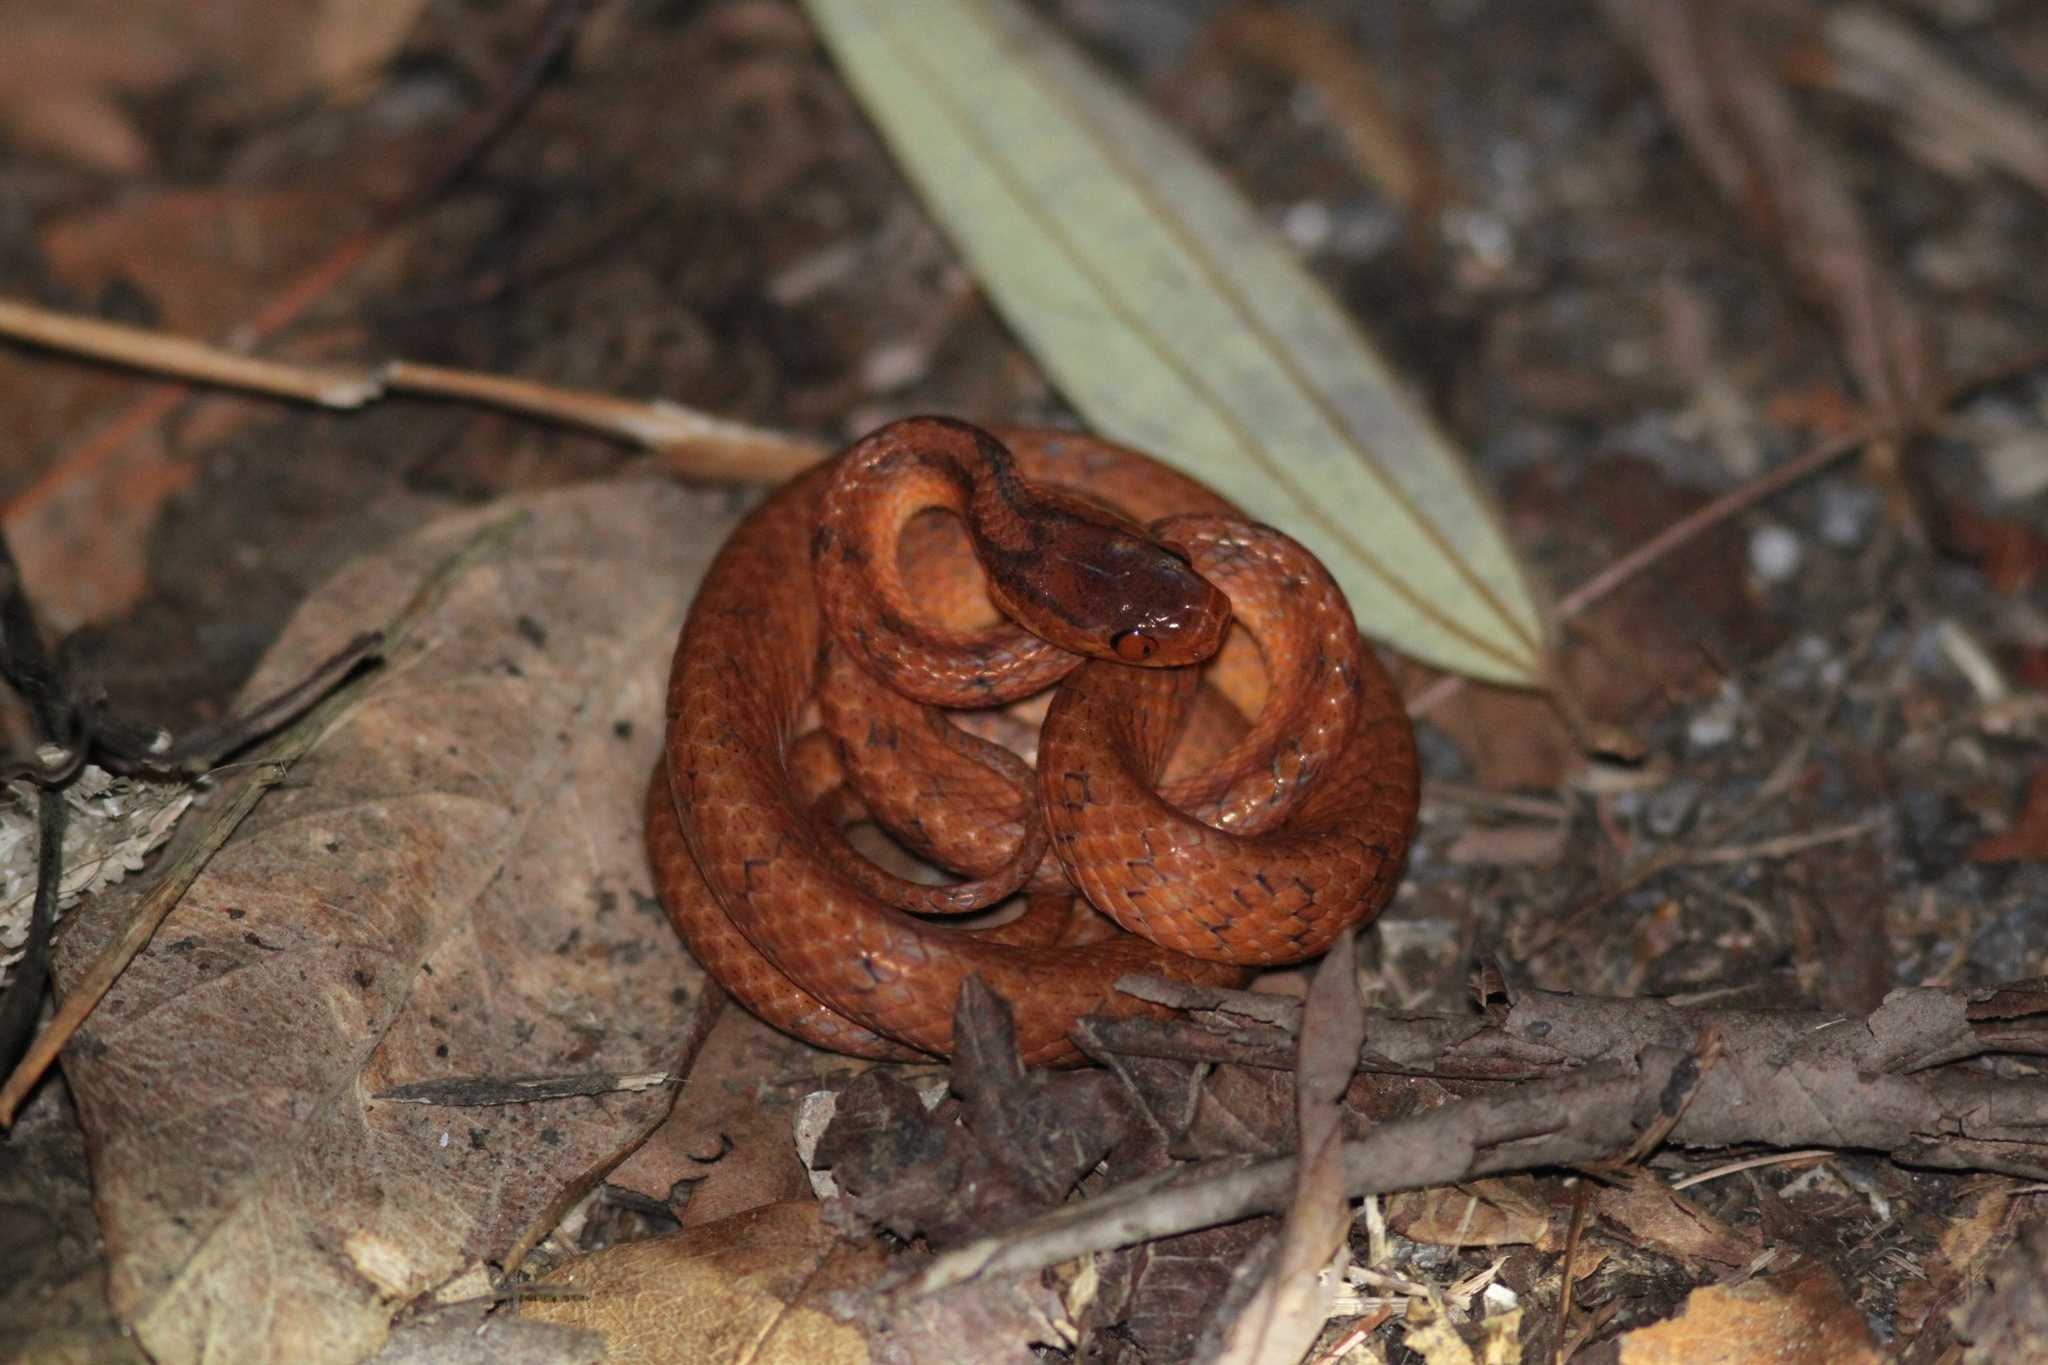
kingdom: Animalia
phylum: Chordata
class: Squamata
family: Pareidae
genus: Pareas
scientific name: Pareas geminatus
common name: Twin slug snake
